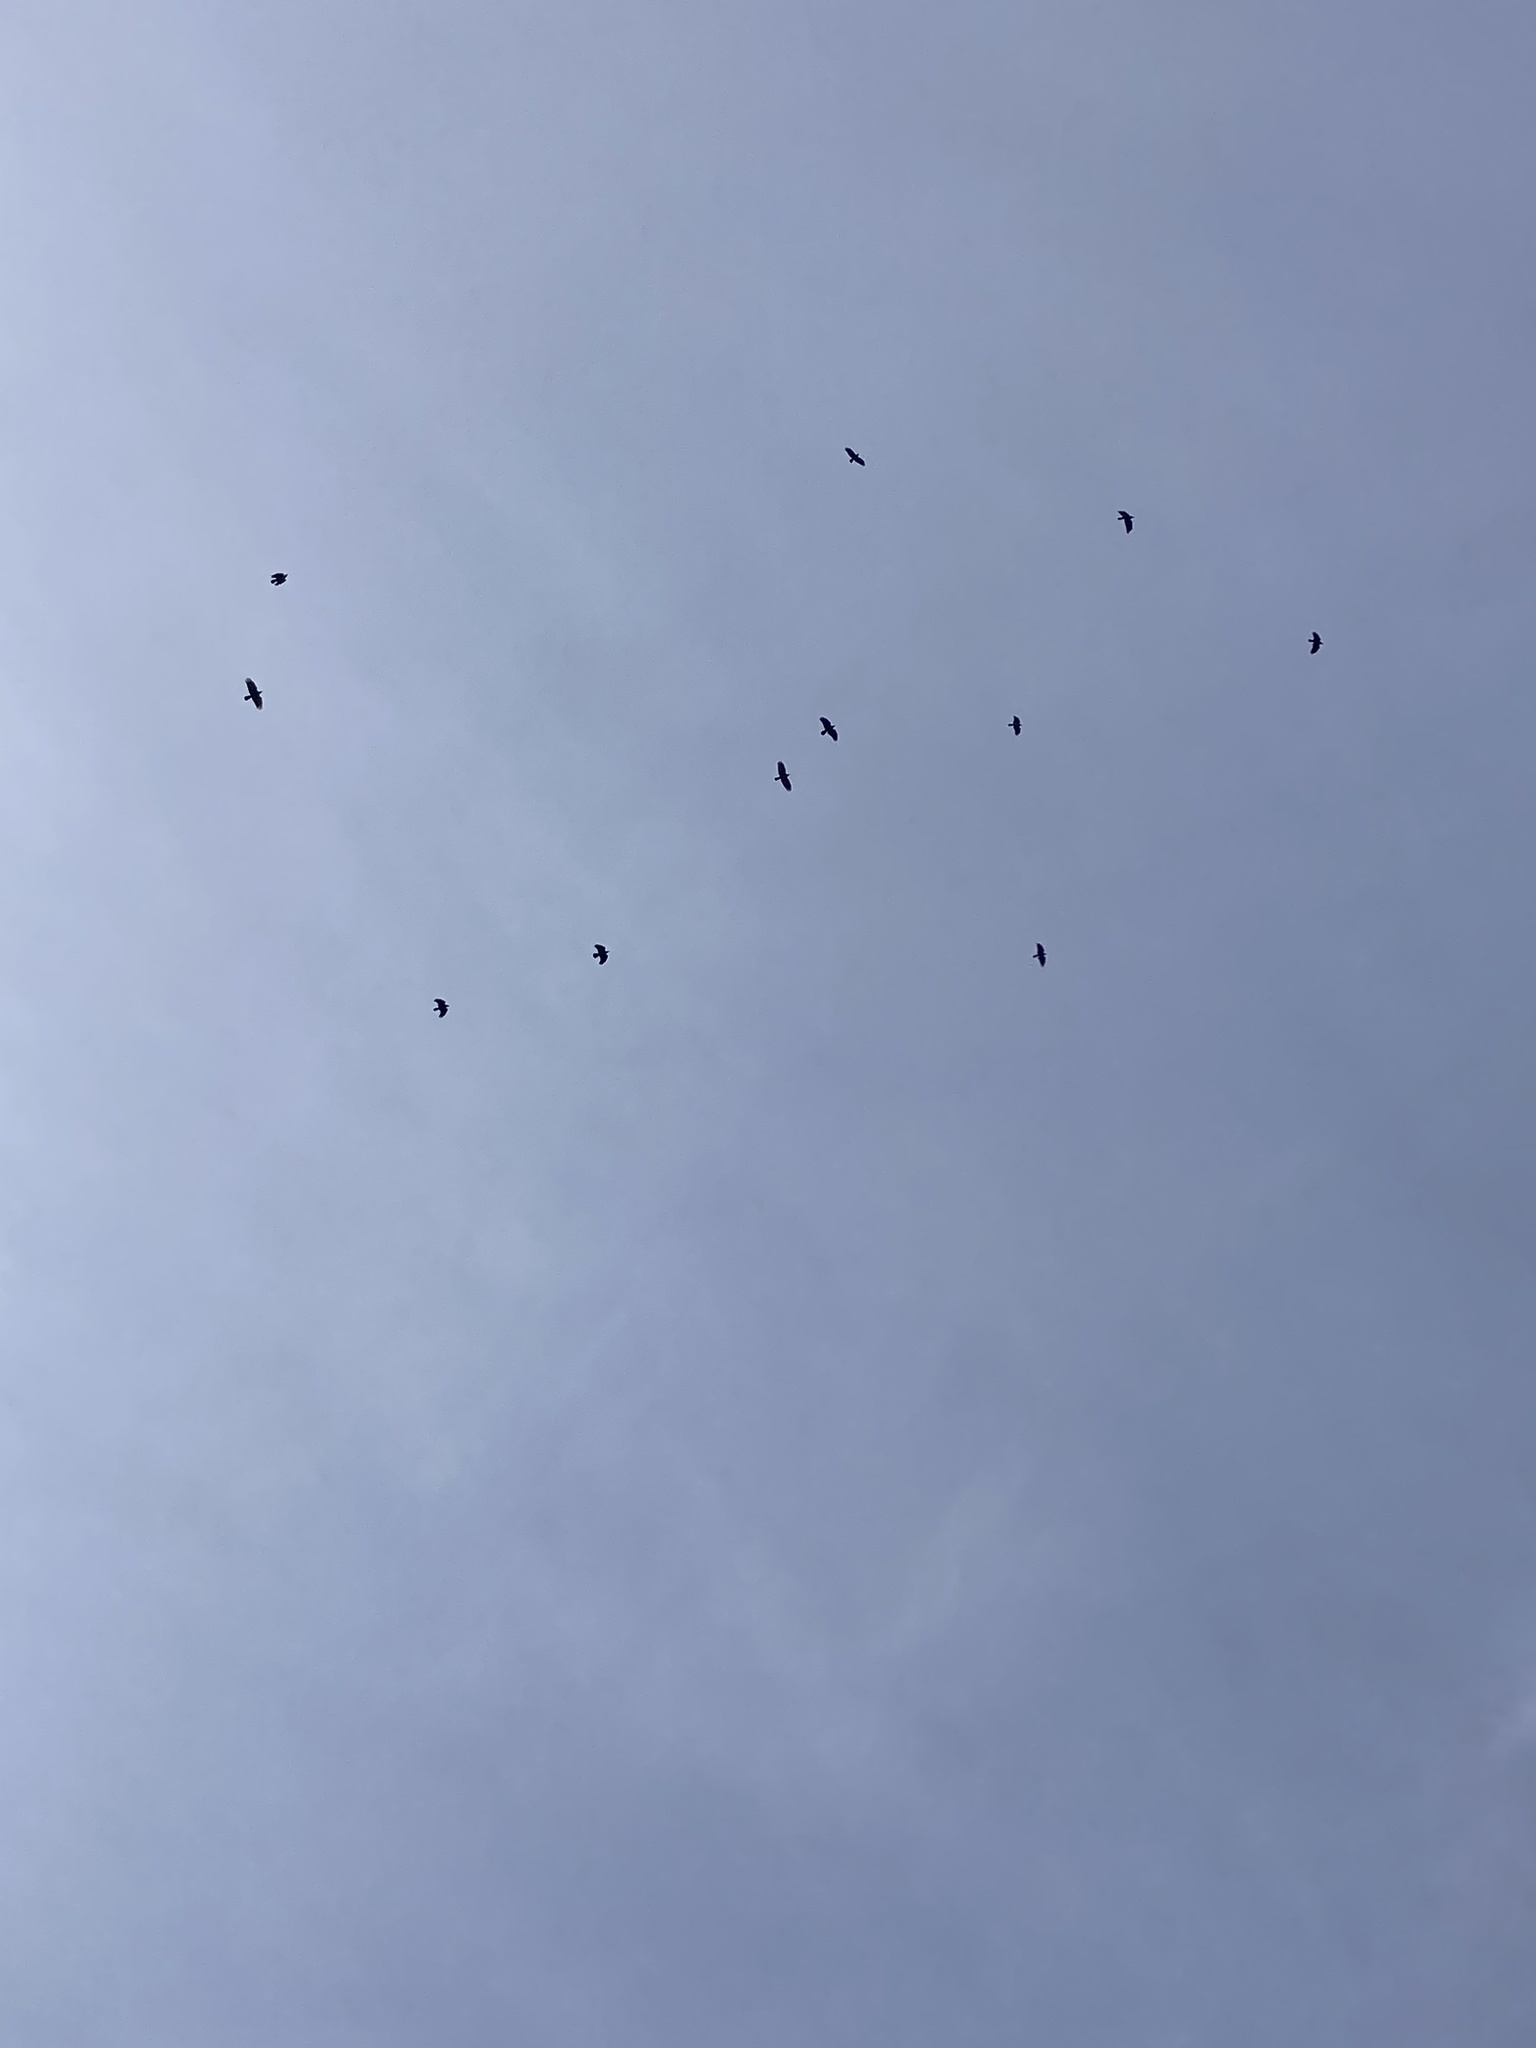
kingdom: Animalia
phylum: Chordata
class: Aves
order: Passeriformes
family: Corvidae
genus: Corvus
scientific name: Corvus ossifragus
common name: Fish crow
